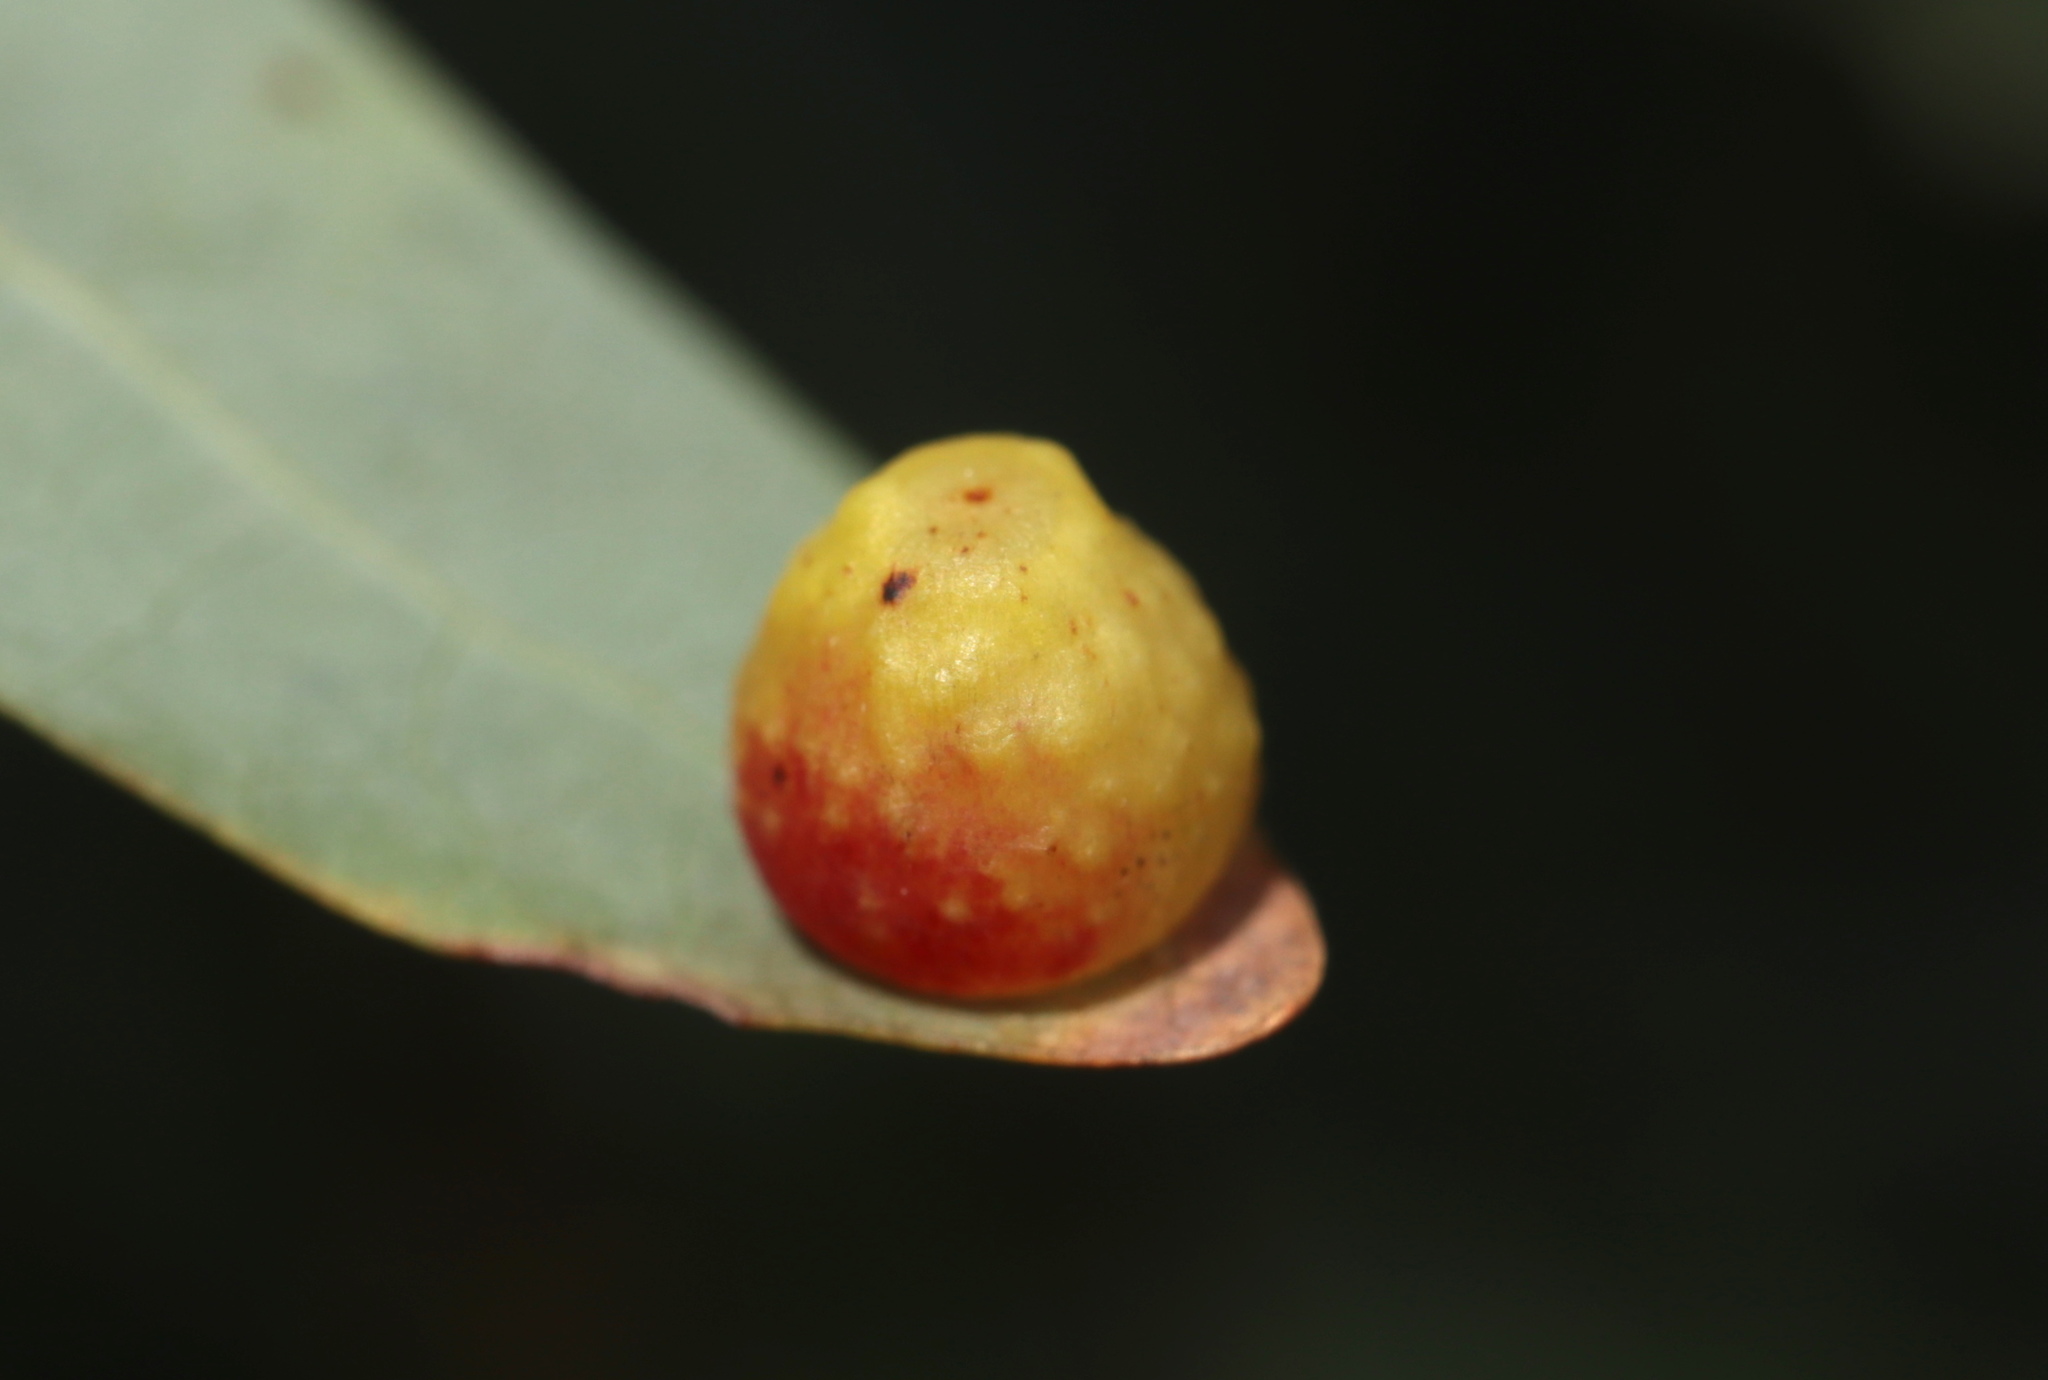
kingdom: Animalia
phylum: Arthropoda
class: Insecta
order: Hymenoptera
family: Cynipidae
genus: Andricus
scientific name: Andricus
